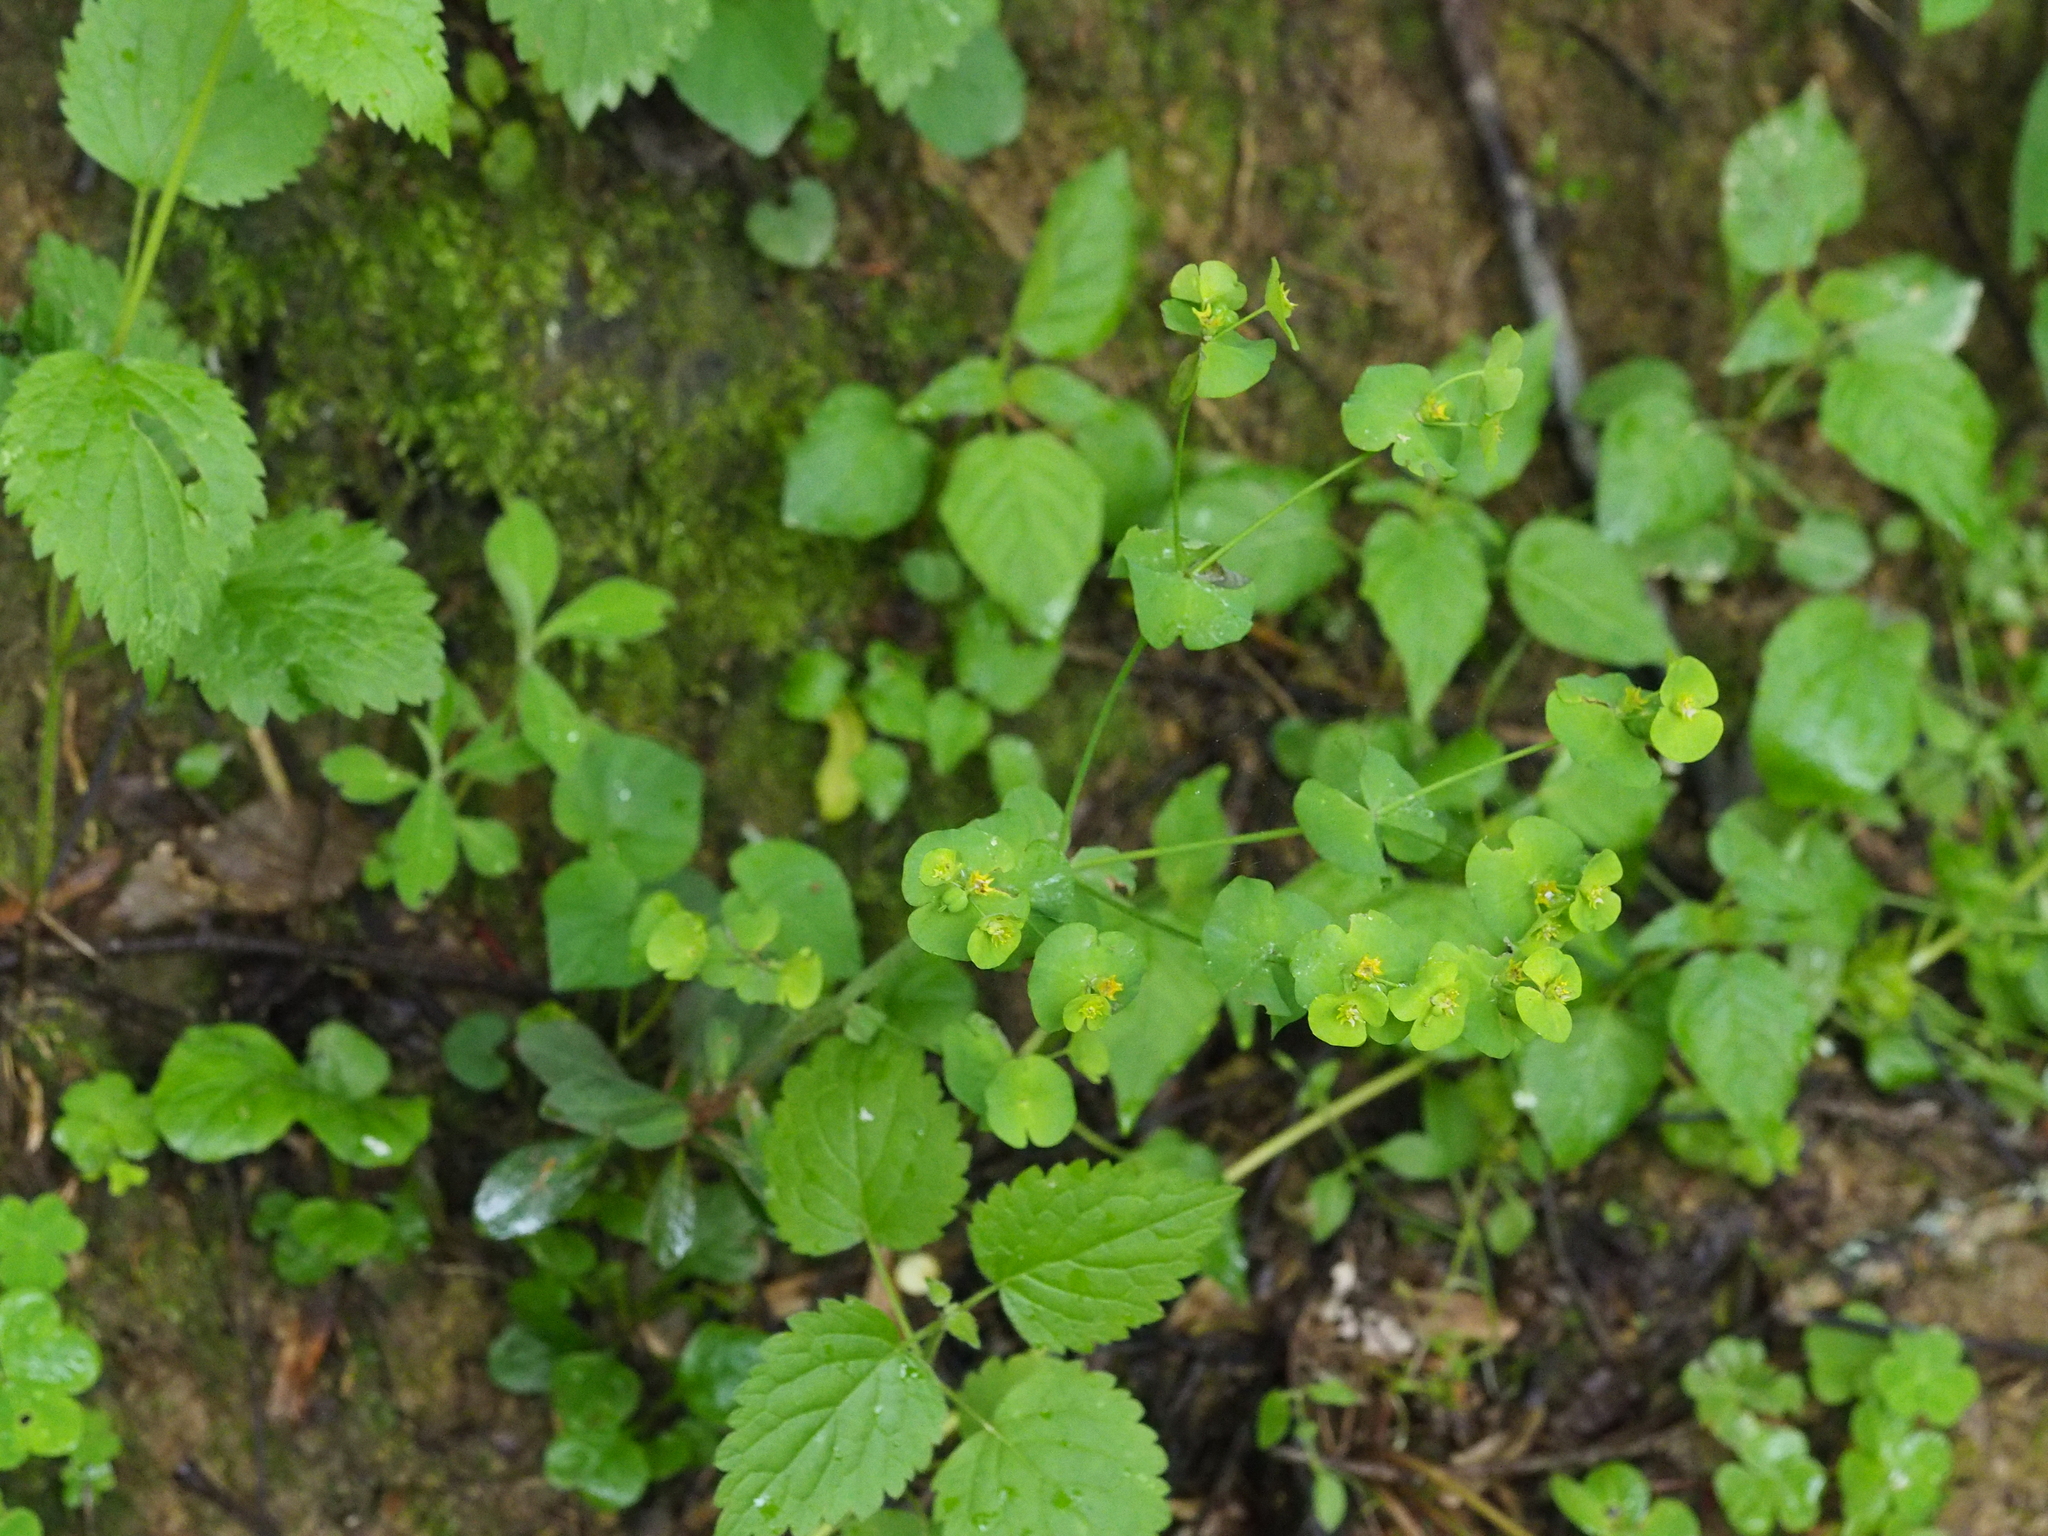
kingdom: Plantae
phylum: Tracheophyta
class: Magnoliopsida
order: Malpighiales
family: Euphorbiaceae
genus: Euphorbia
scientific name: Euphorbia amygdaloides
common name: Wood spurge
